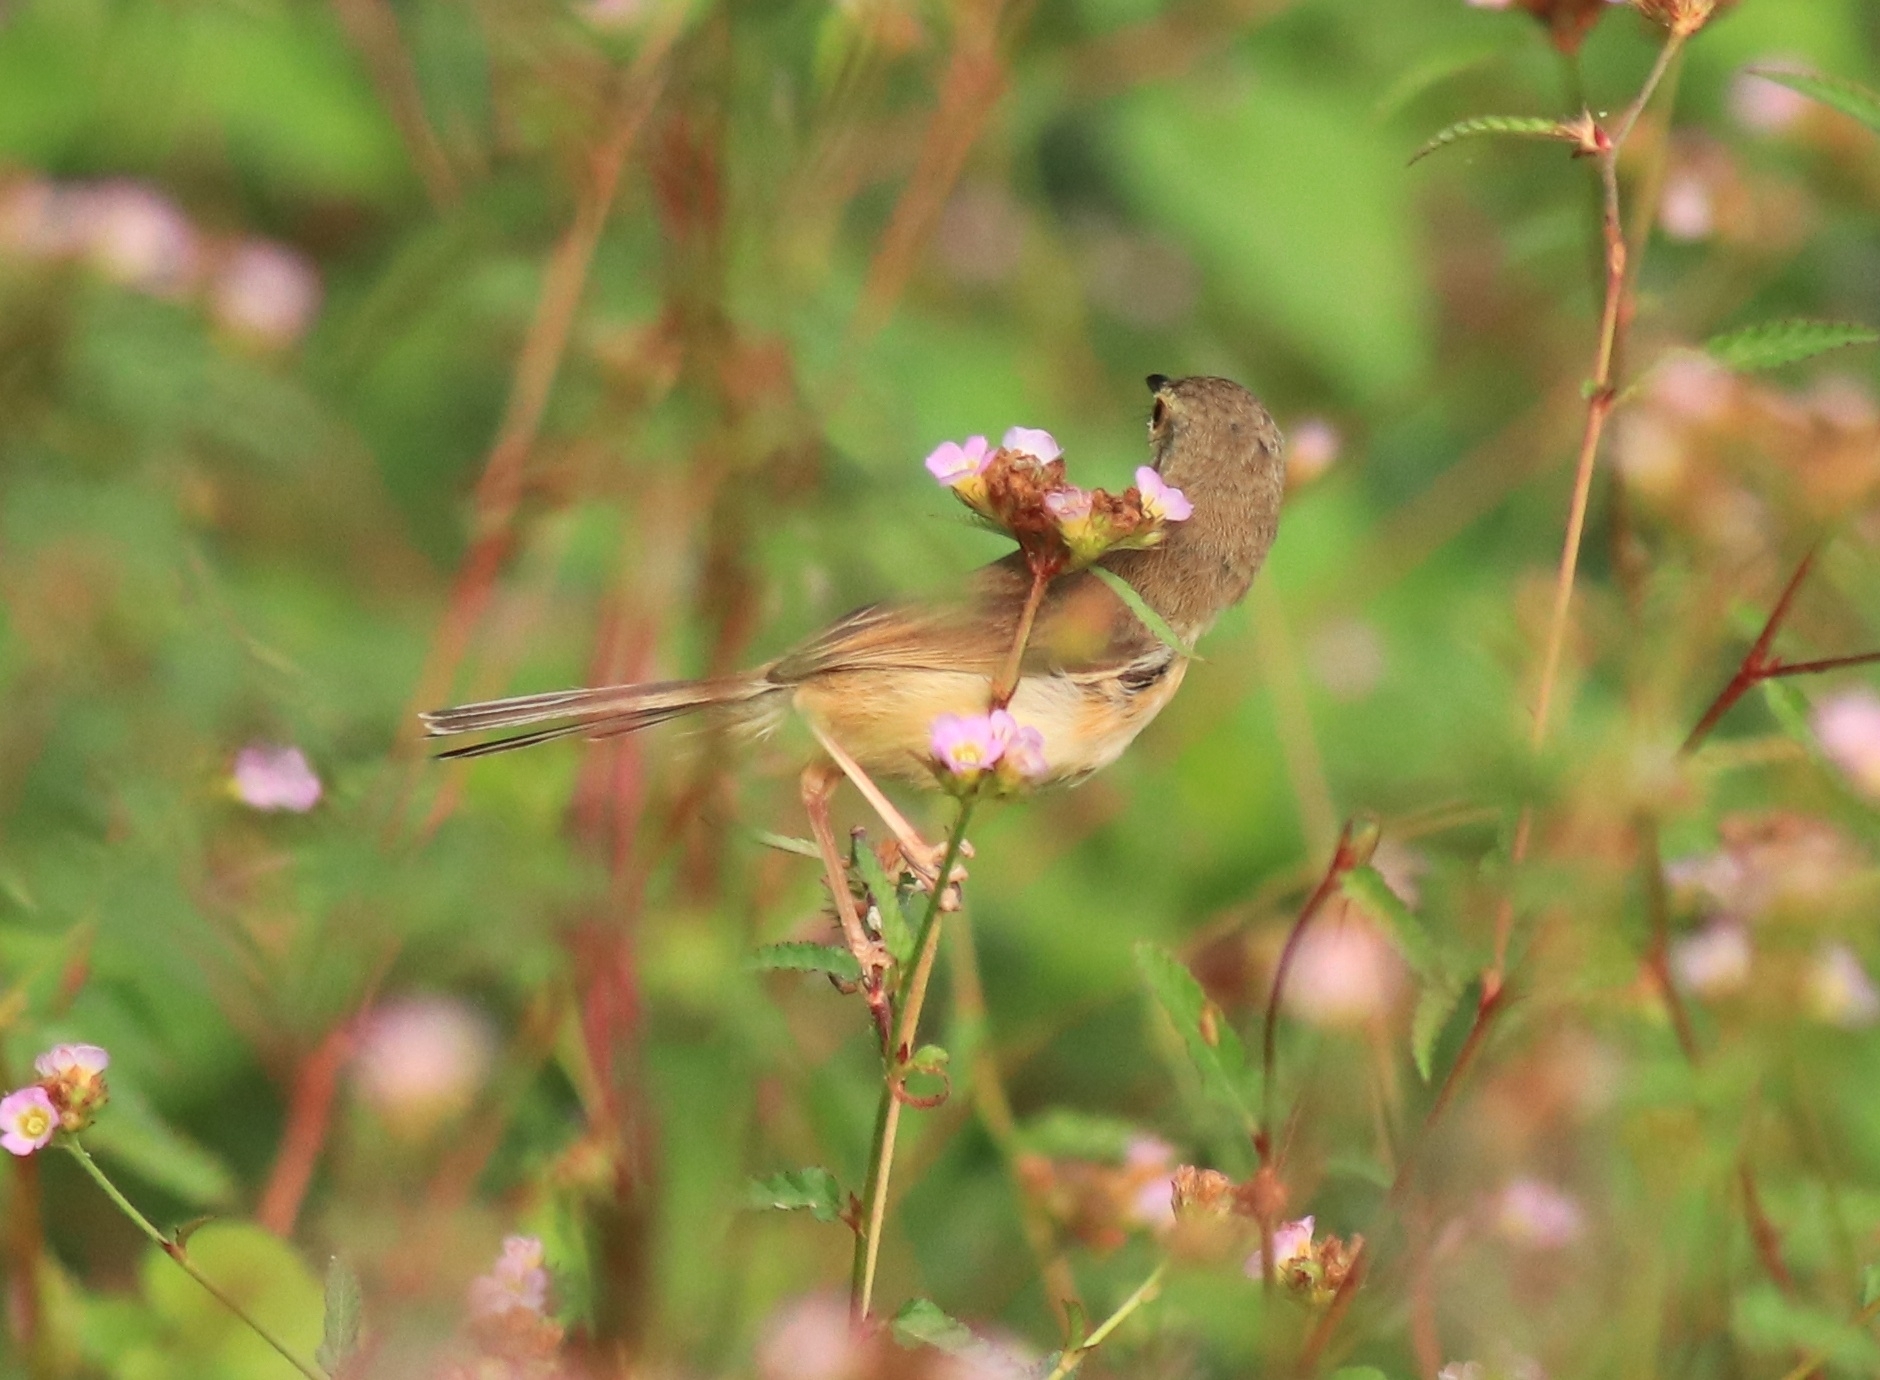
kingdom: Animalia
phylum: Chordata
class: Aves
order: Passeriformes
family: Cisticolidae
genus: Prinia
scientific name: Prinia inornata
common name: Plain prinia
